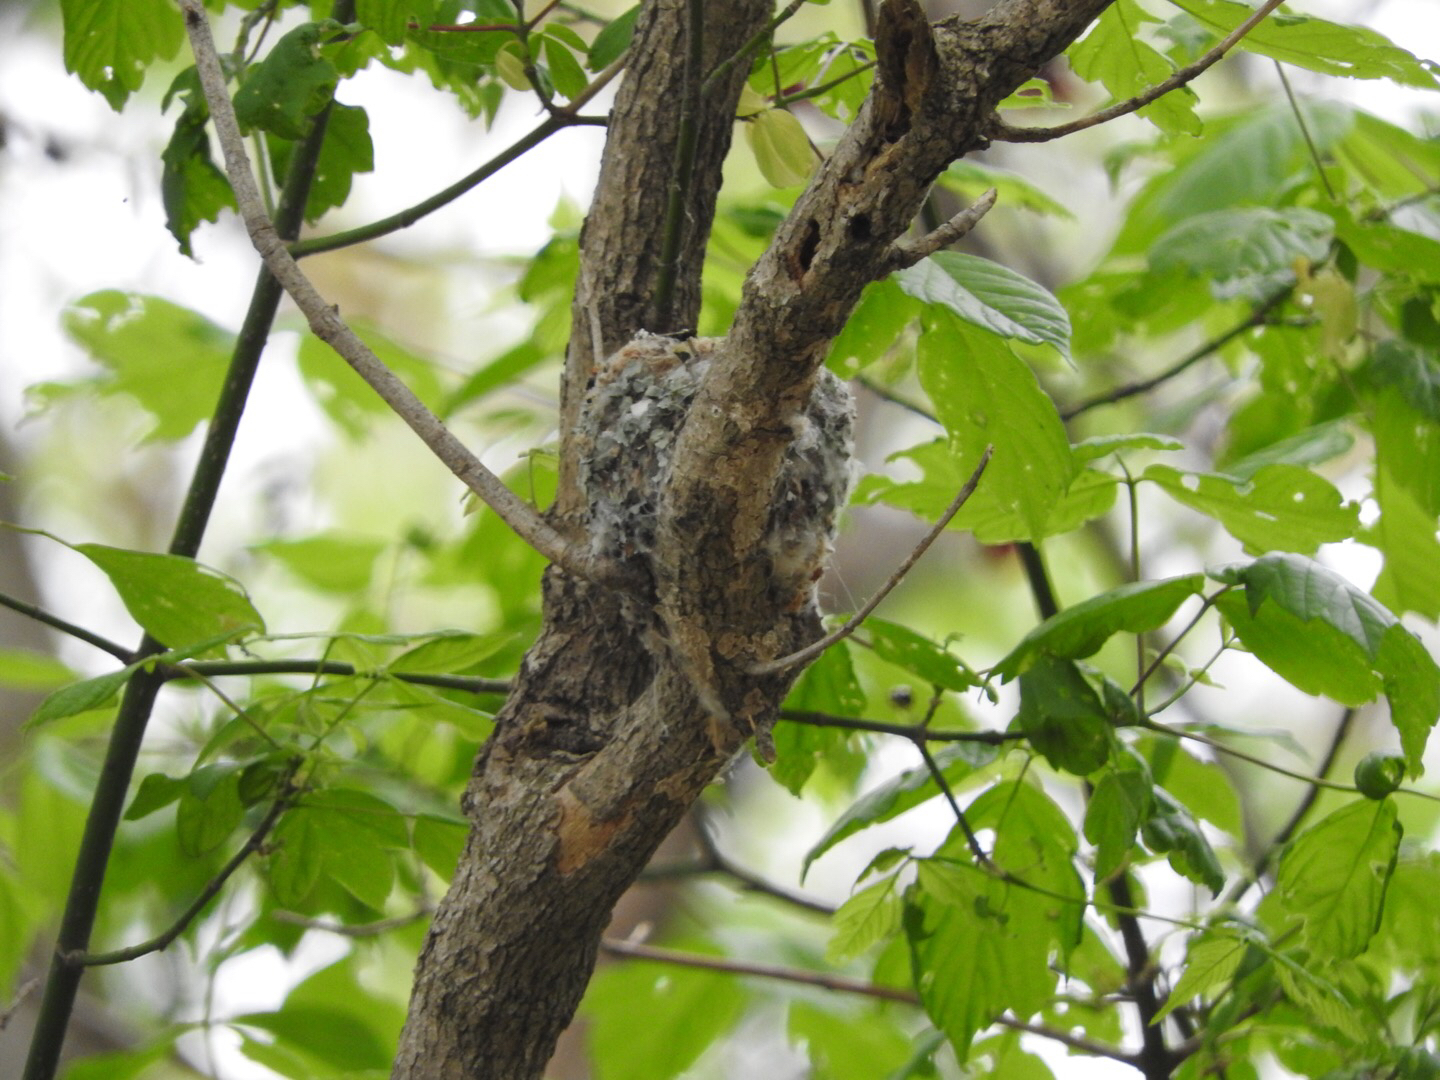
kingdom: Animalia
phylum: Chordata
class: Aves
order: Passeriformes
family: Polioptilidae
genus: Polioptila
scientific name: Polioptila caerulea
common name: Blue-gray gnatcatcher
